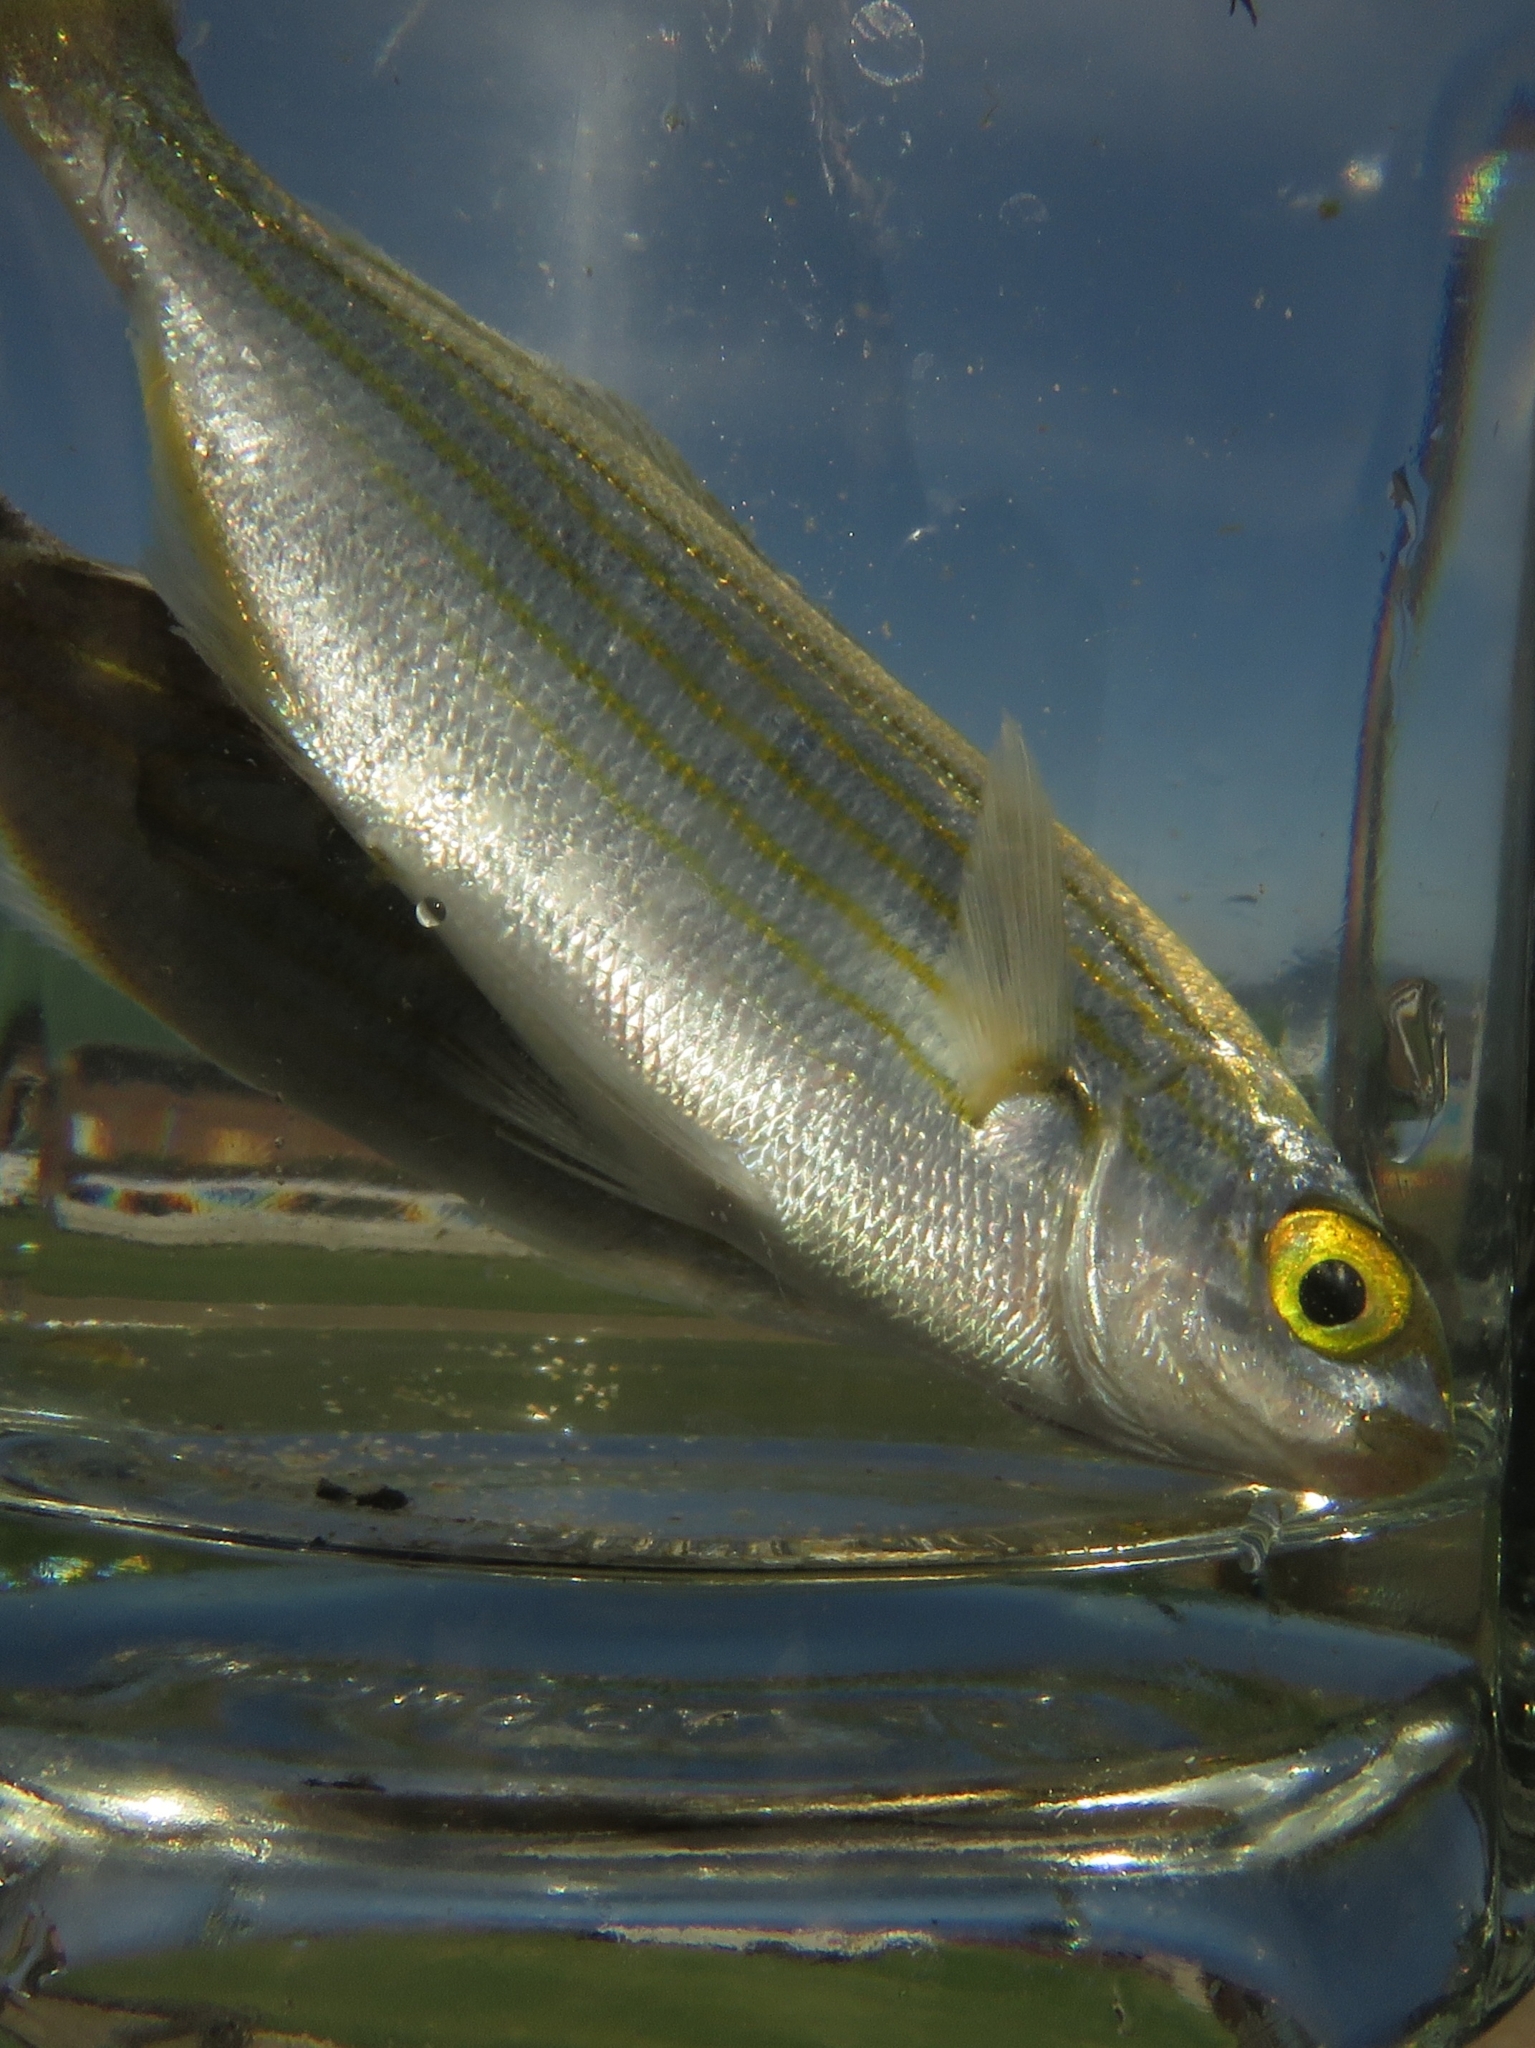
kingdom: Animalia
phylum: Chordata
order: Perciformes
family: Sparidae
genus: Sarpa
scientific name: Sarpa salpa
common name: Salema
